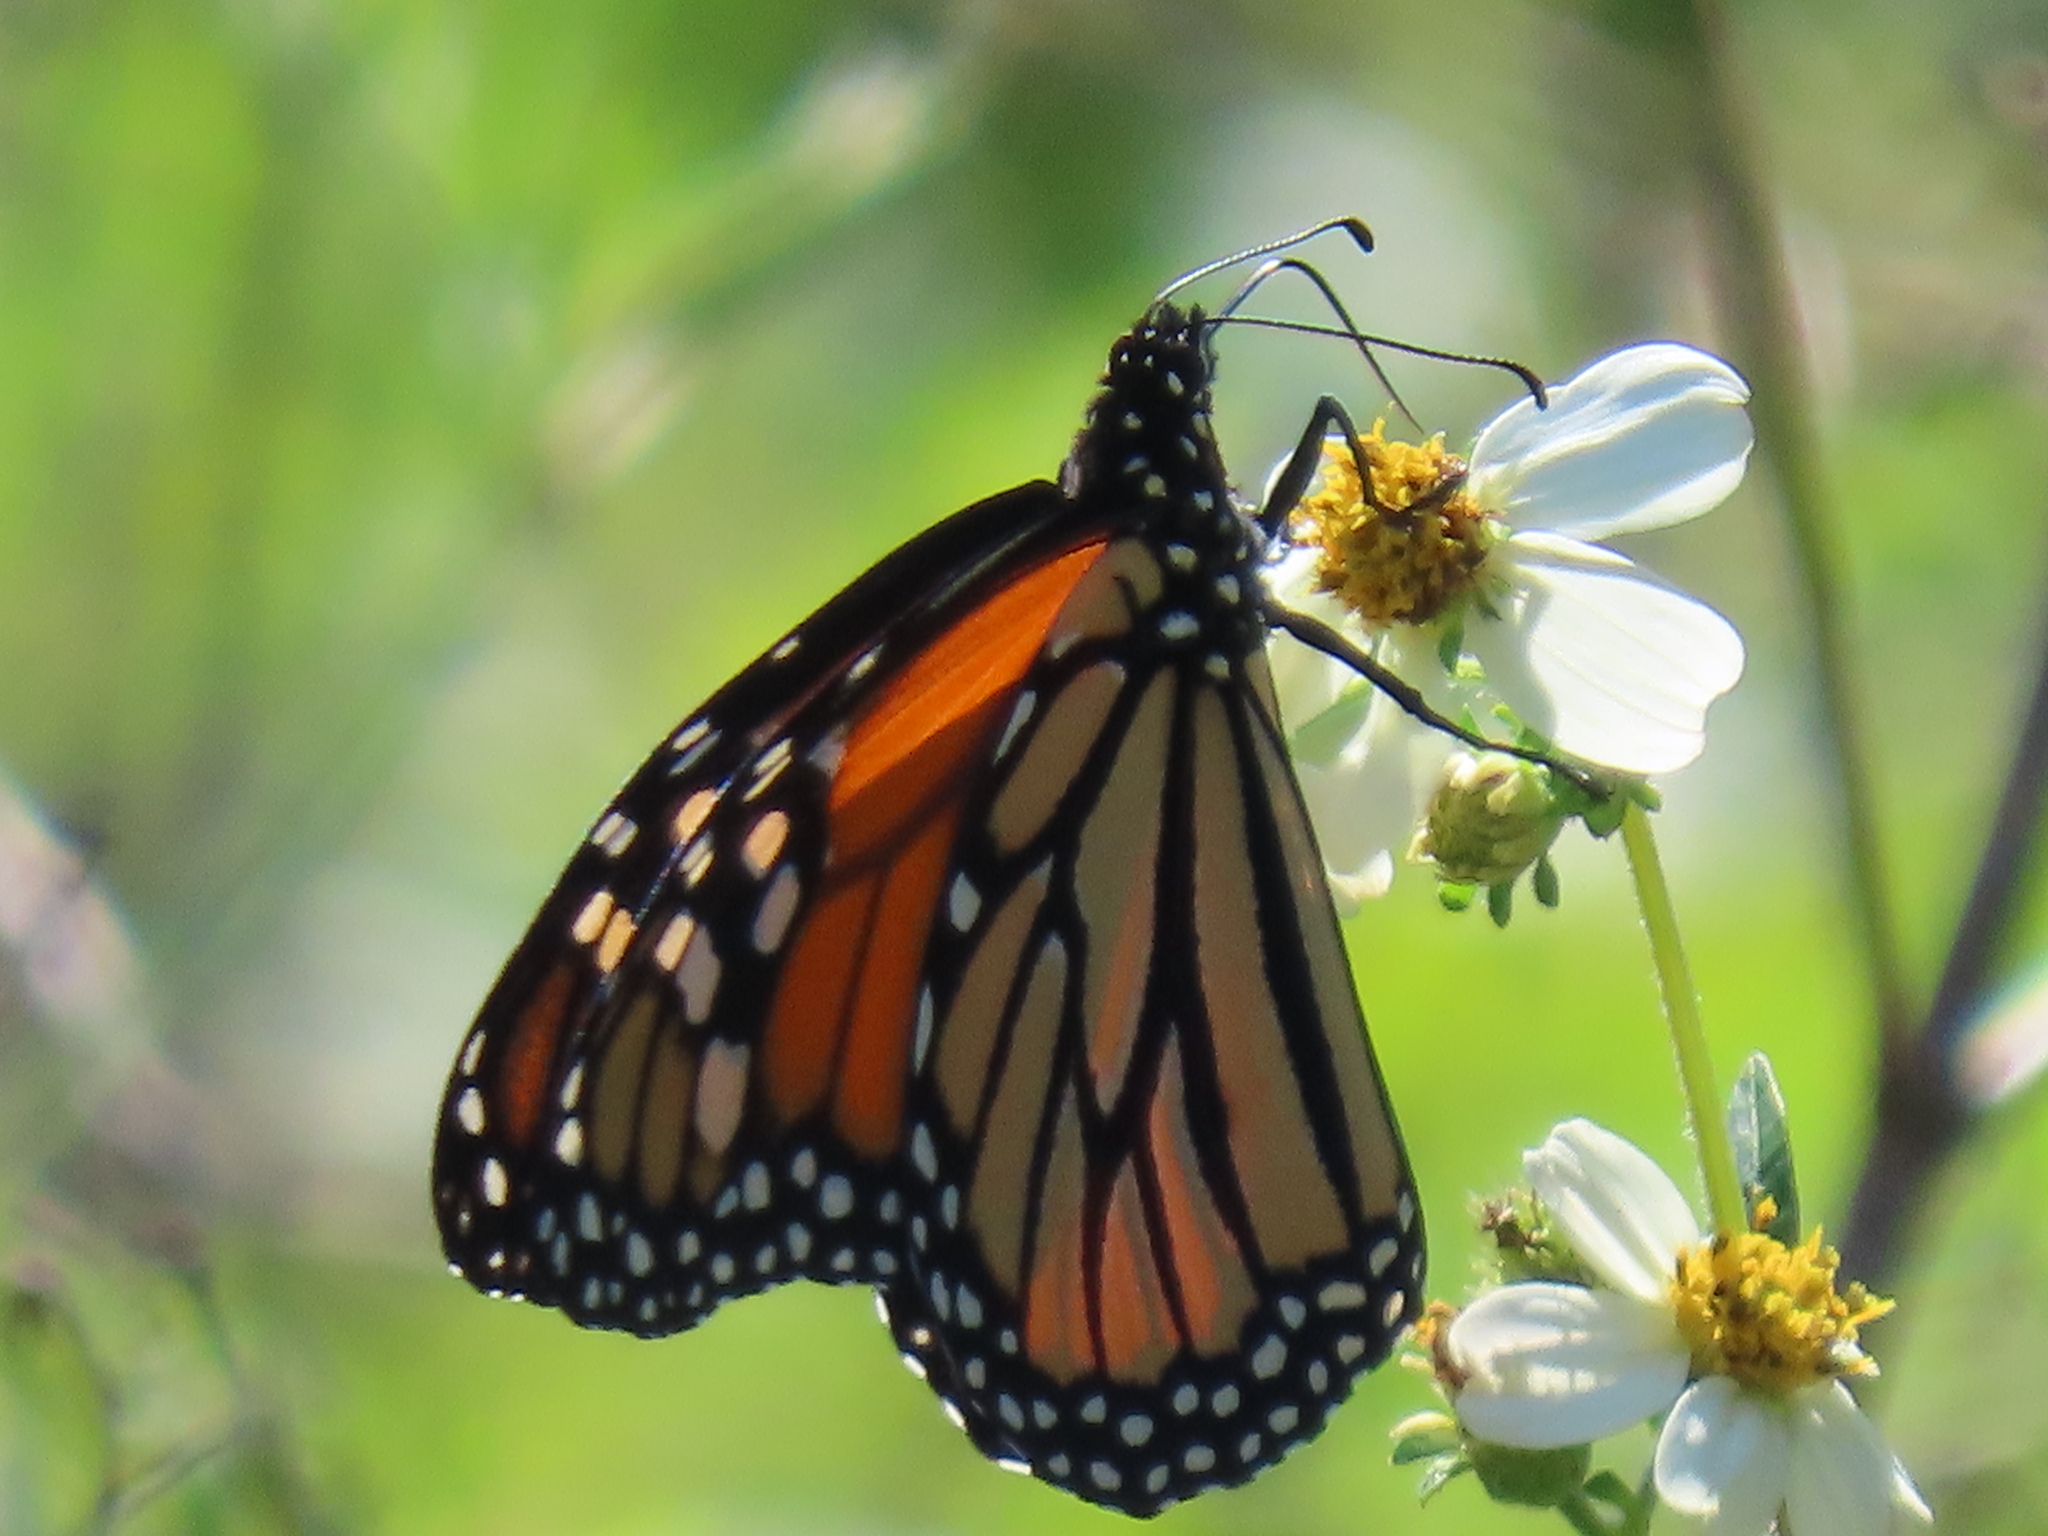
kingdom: Animalia
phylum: Arthropoda
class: Insecta
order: Lepidoptera
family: Nymphalidae
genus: Danaus
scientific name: Danaus plexippus
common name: Monarch
